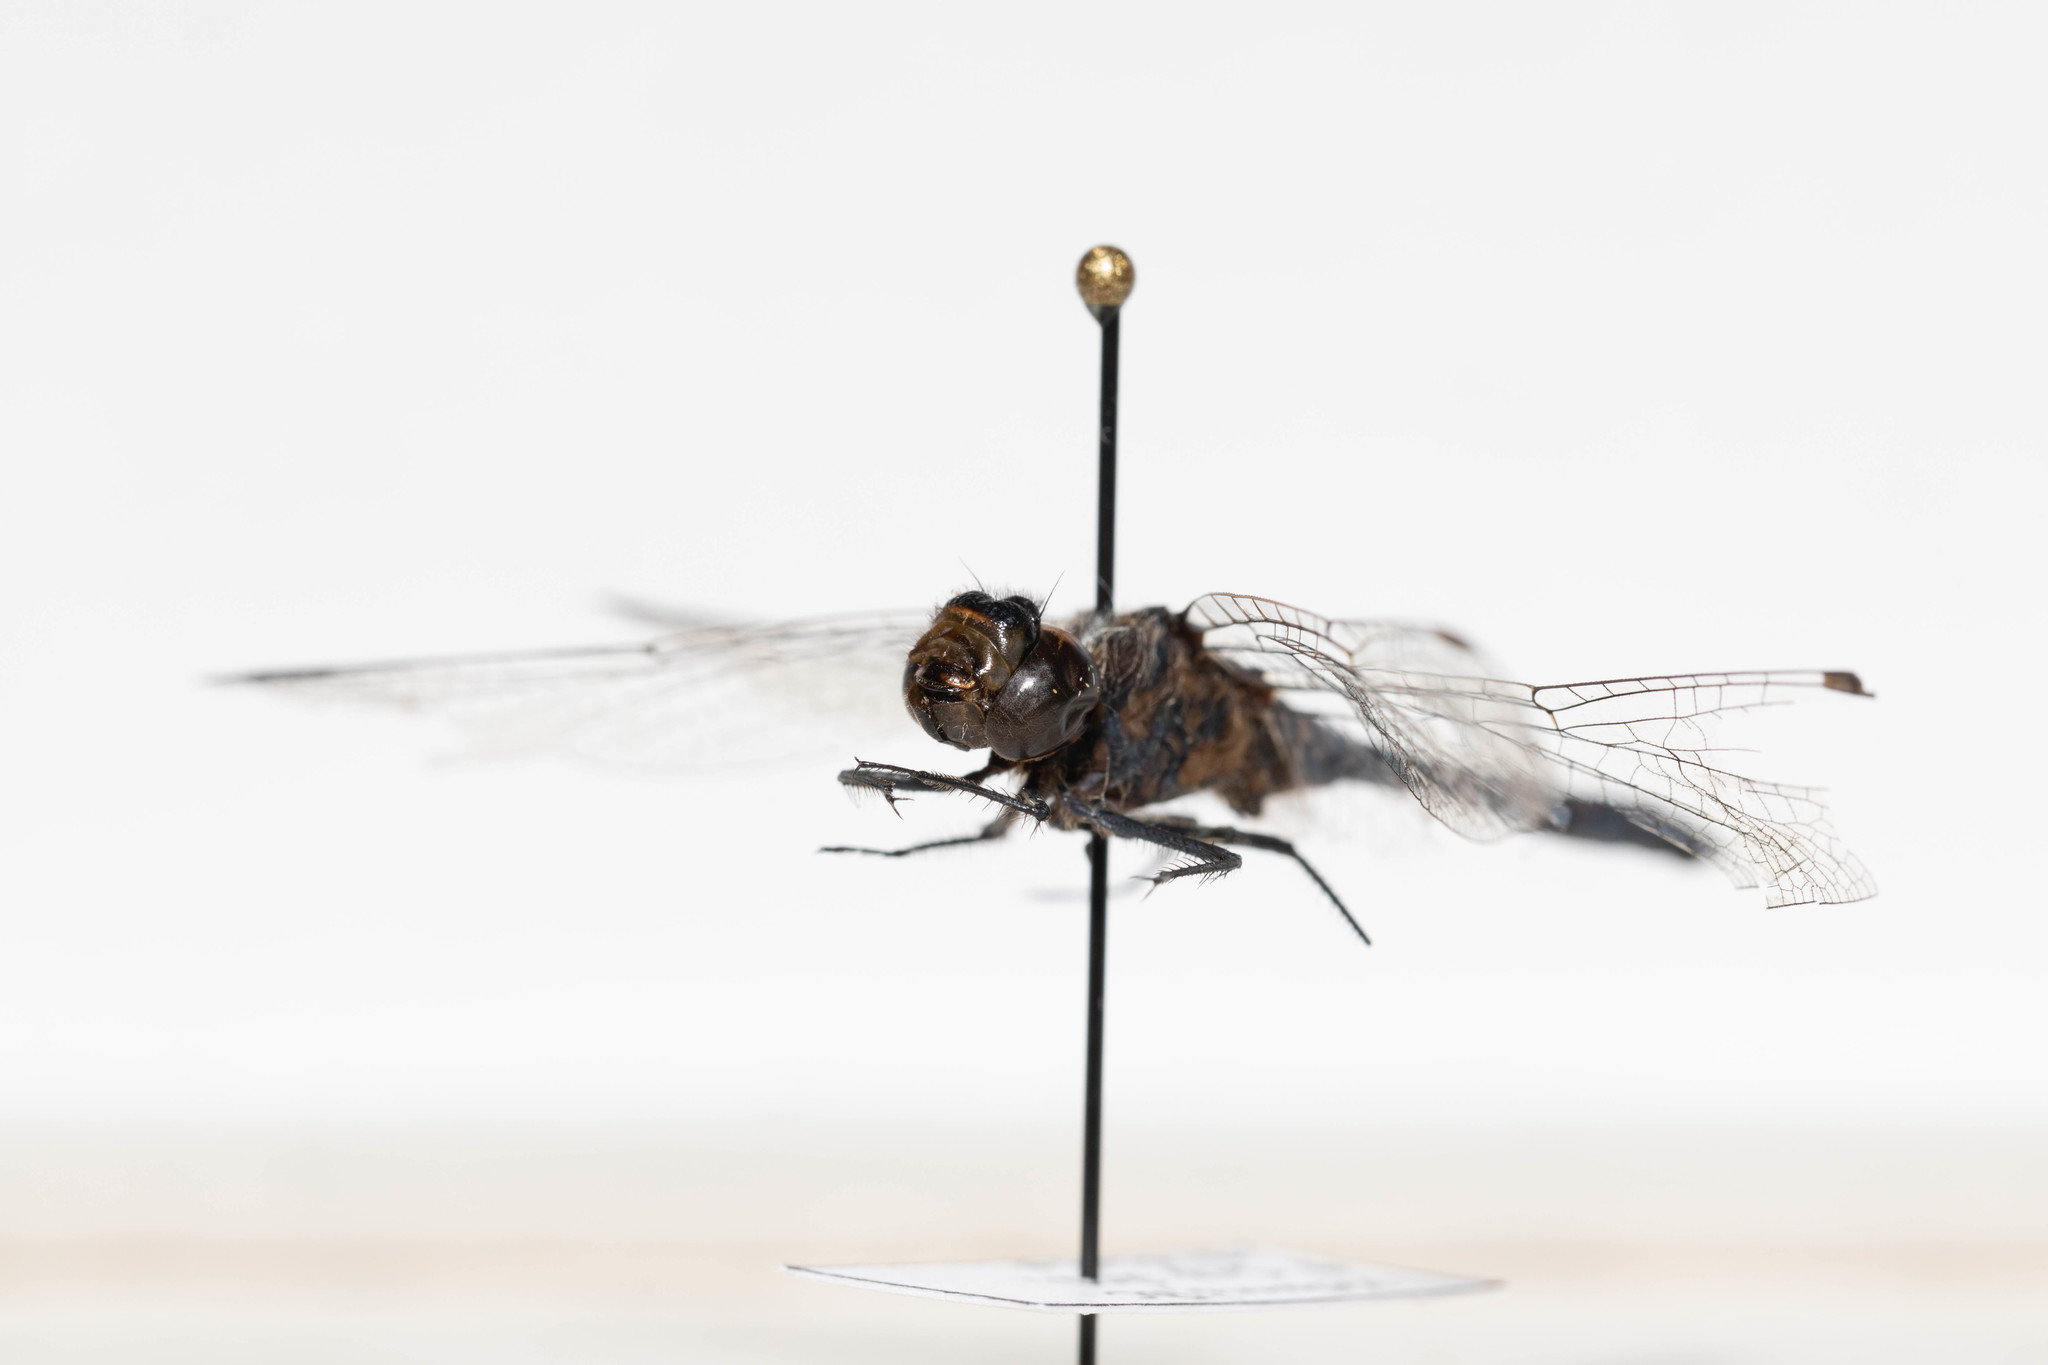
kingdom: Animalia
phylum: Arthropoda
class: Insecta
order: Odonata
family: Libellulidae
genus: Sympetrum
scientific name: Sympetrum danae
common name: Black darter
